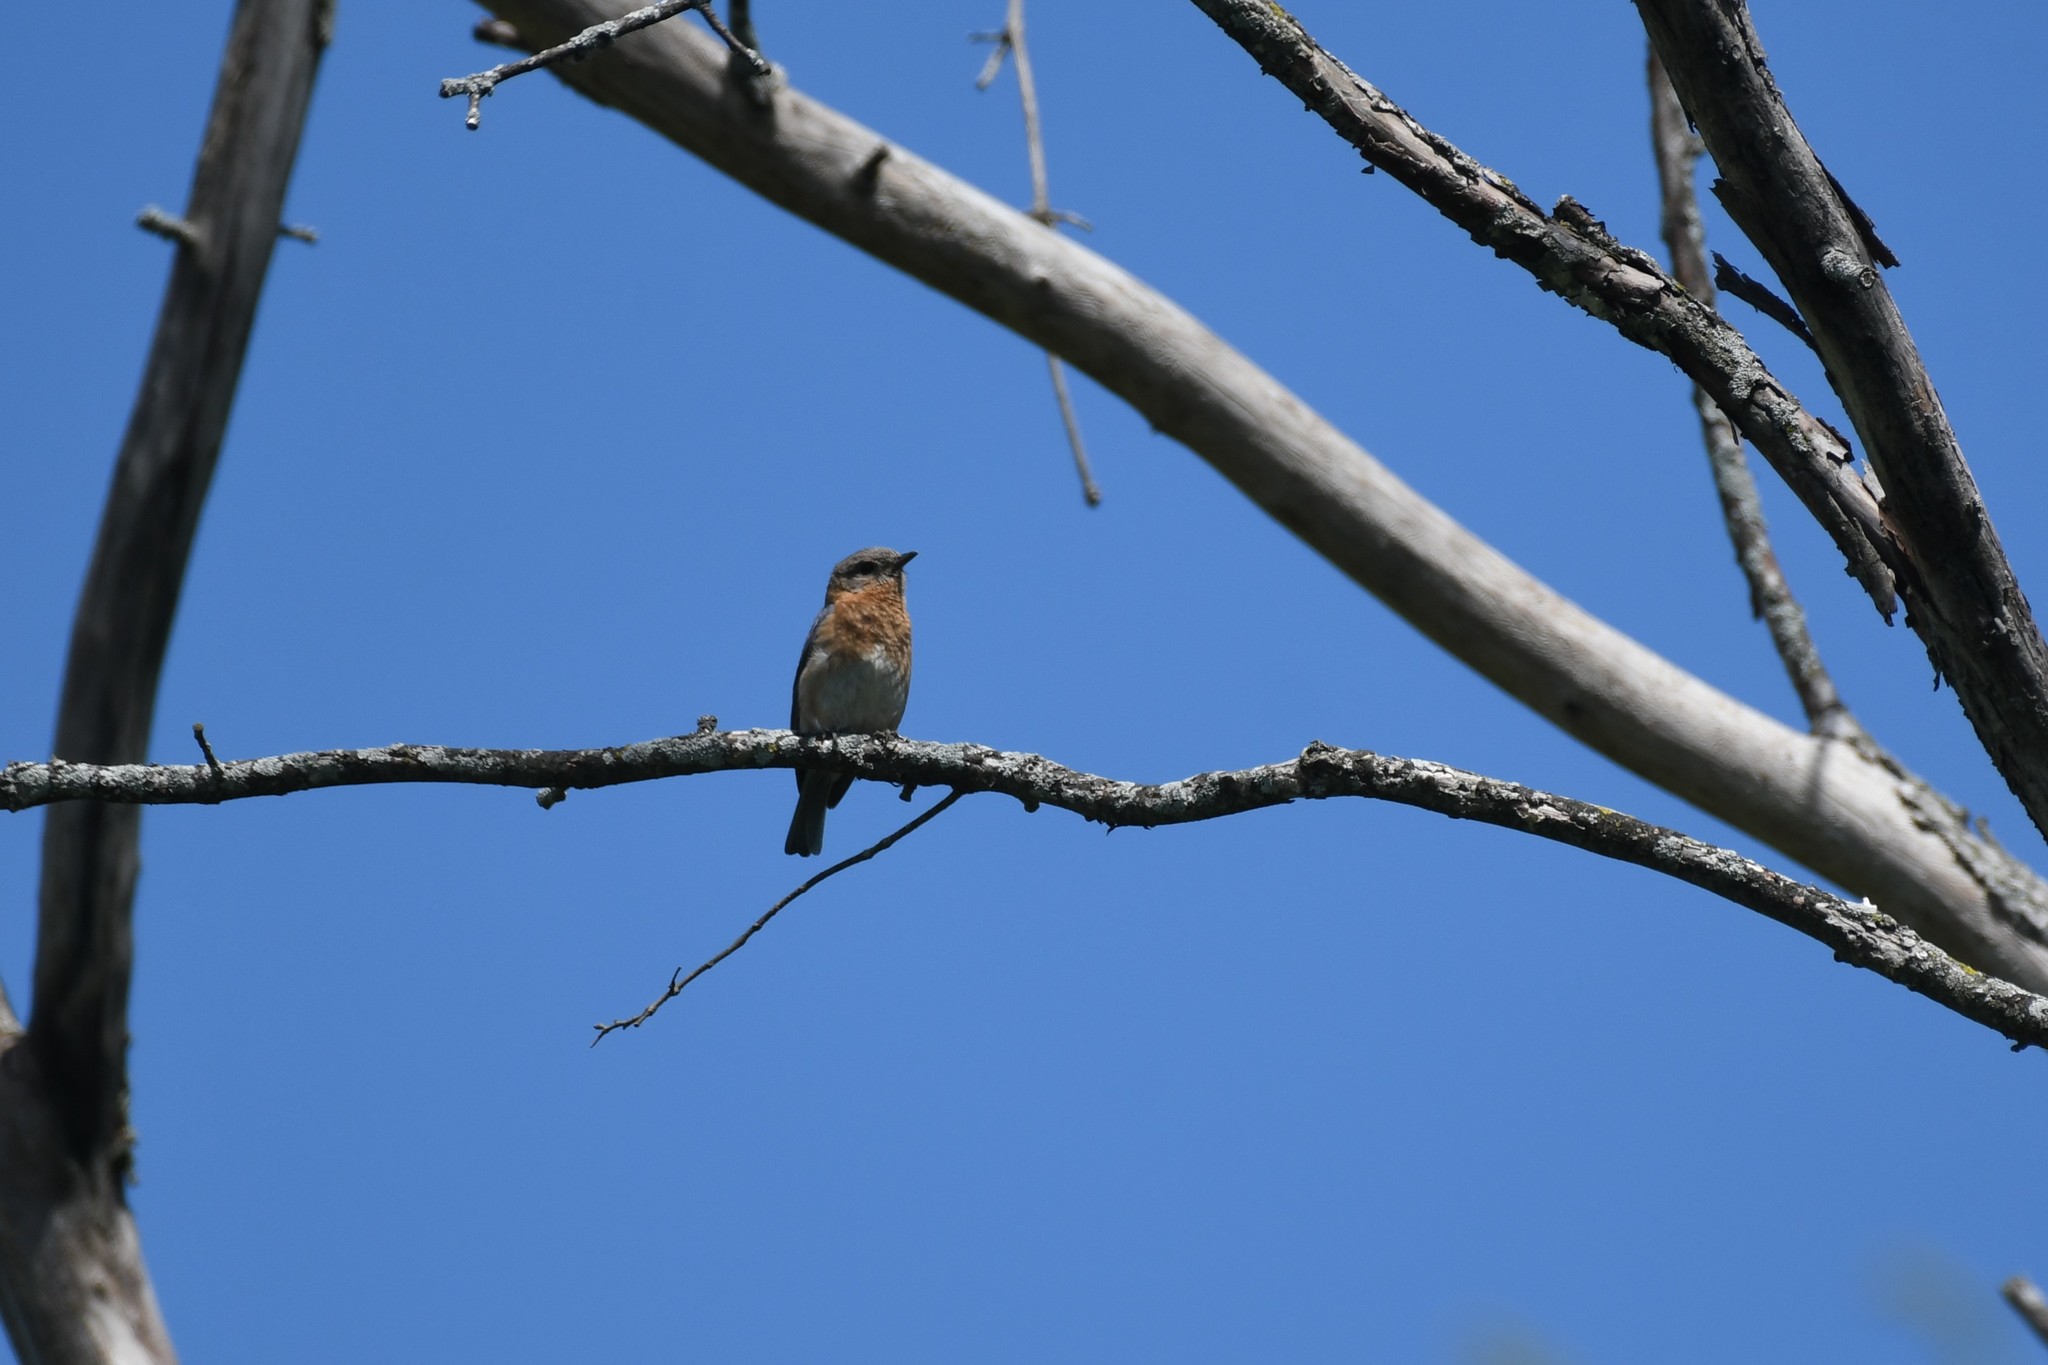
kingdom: Animalia
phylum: Chordata
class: Aves
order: Passeriformes
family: Turdidae
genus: Sialia
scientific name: Sialia sialis
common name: Eastern bluebird
